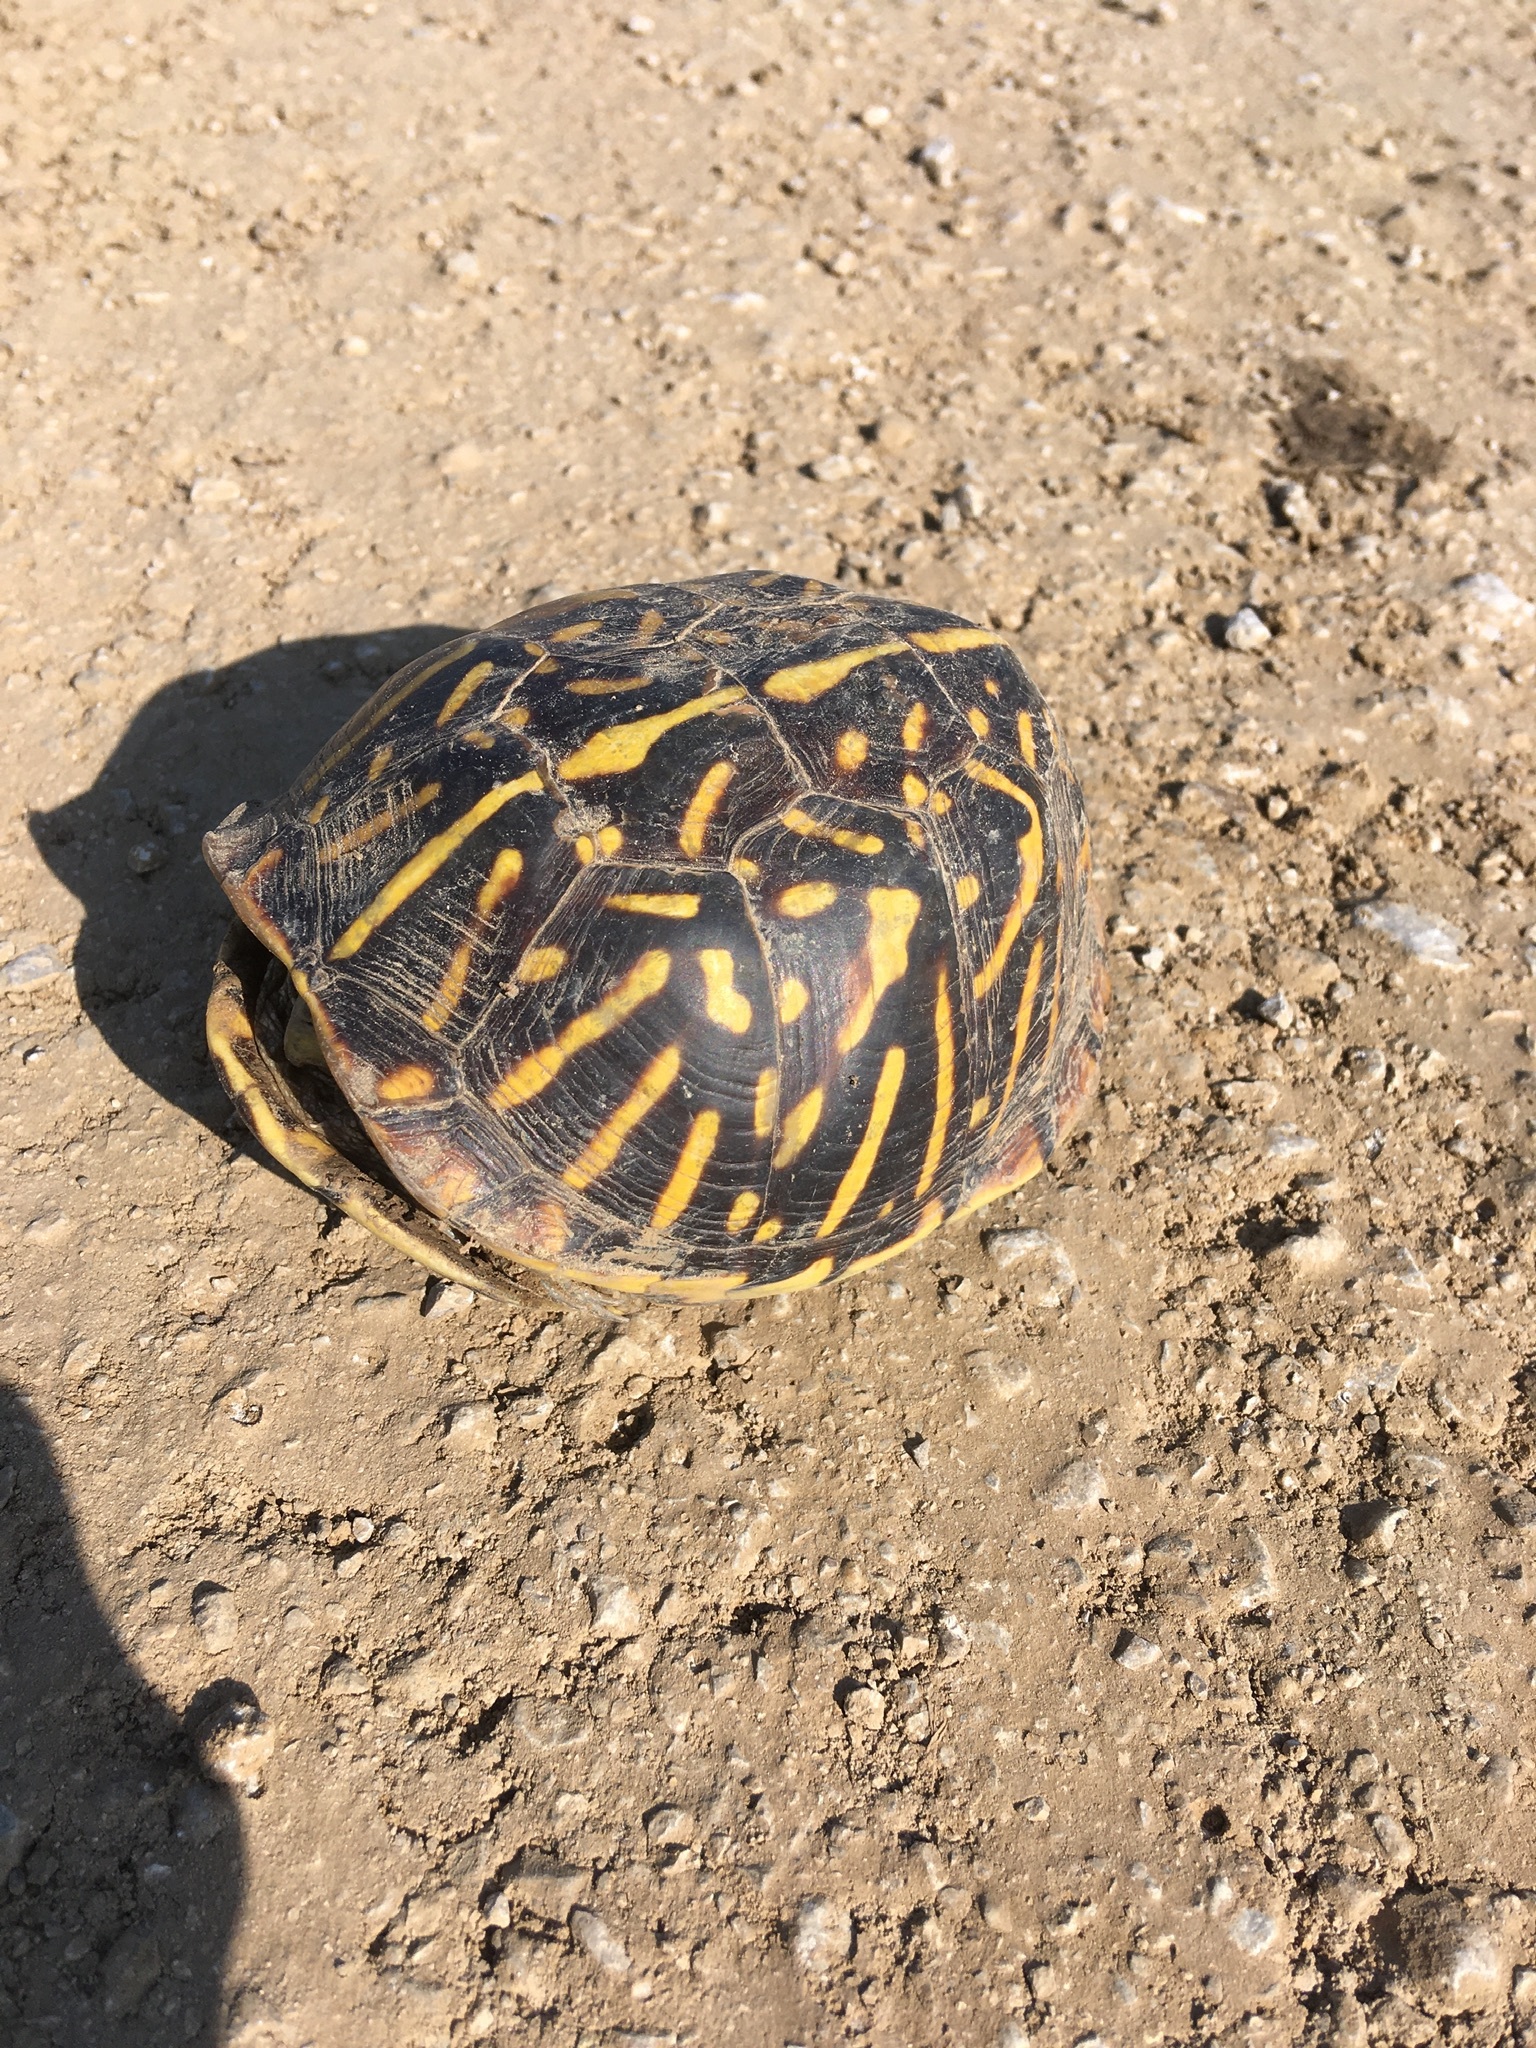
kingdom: Animalia
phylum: Chordata
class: Testudines
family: Emydidae
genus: Terrapene
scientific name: Terrapene ornata
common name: Western box turtle
